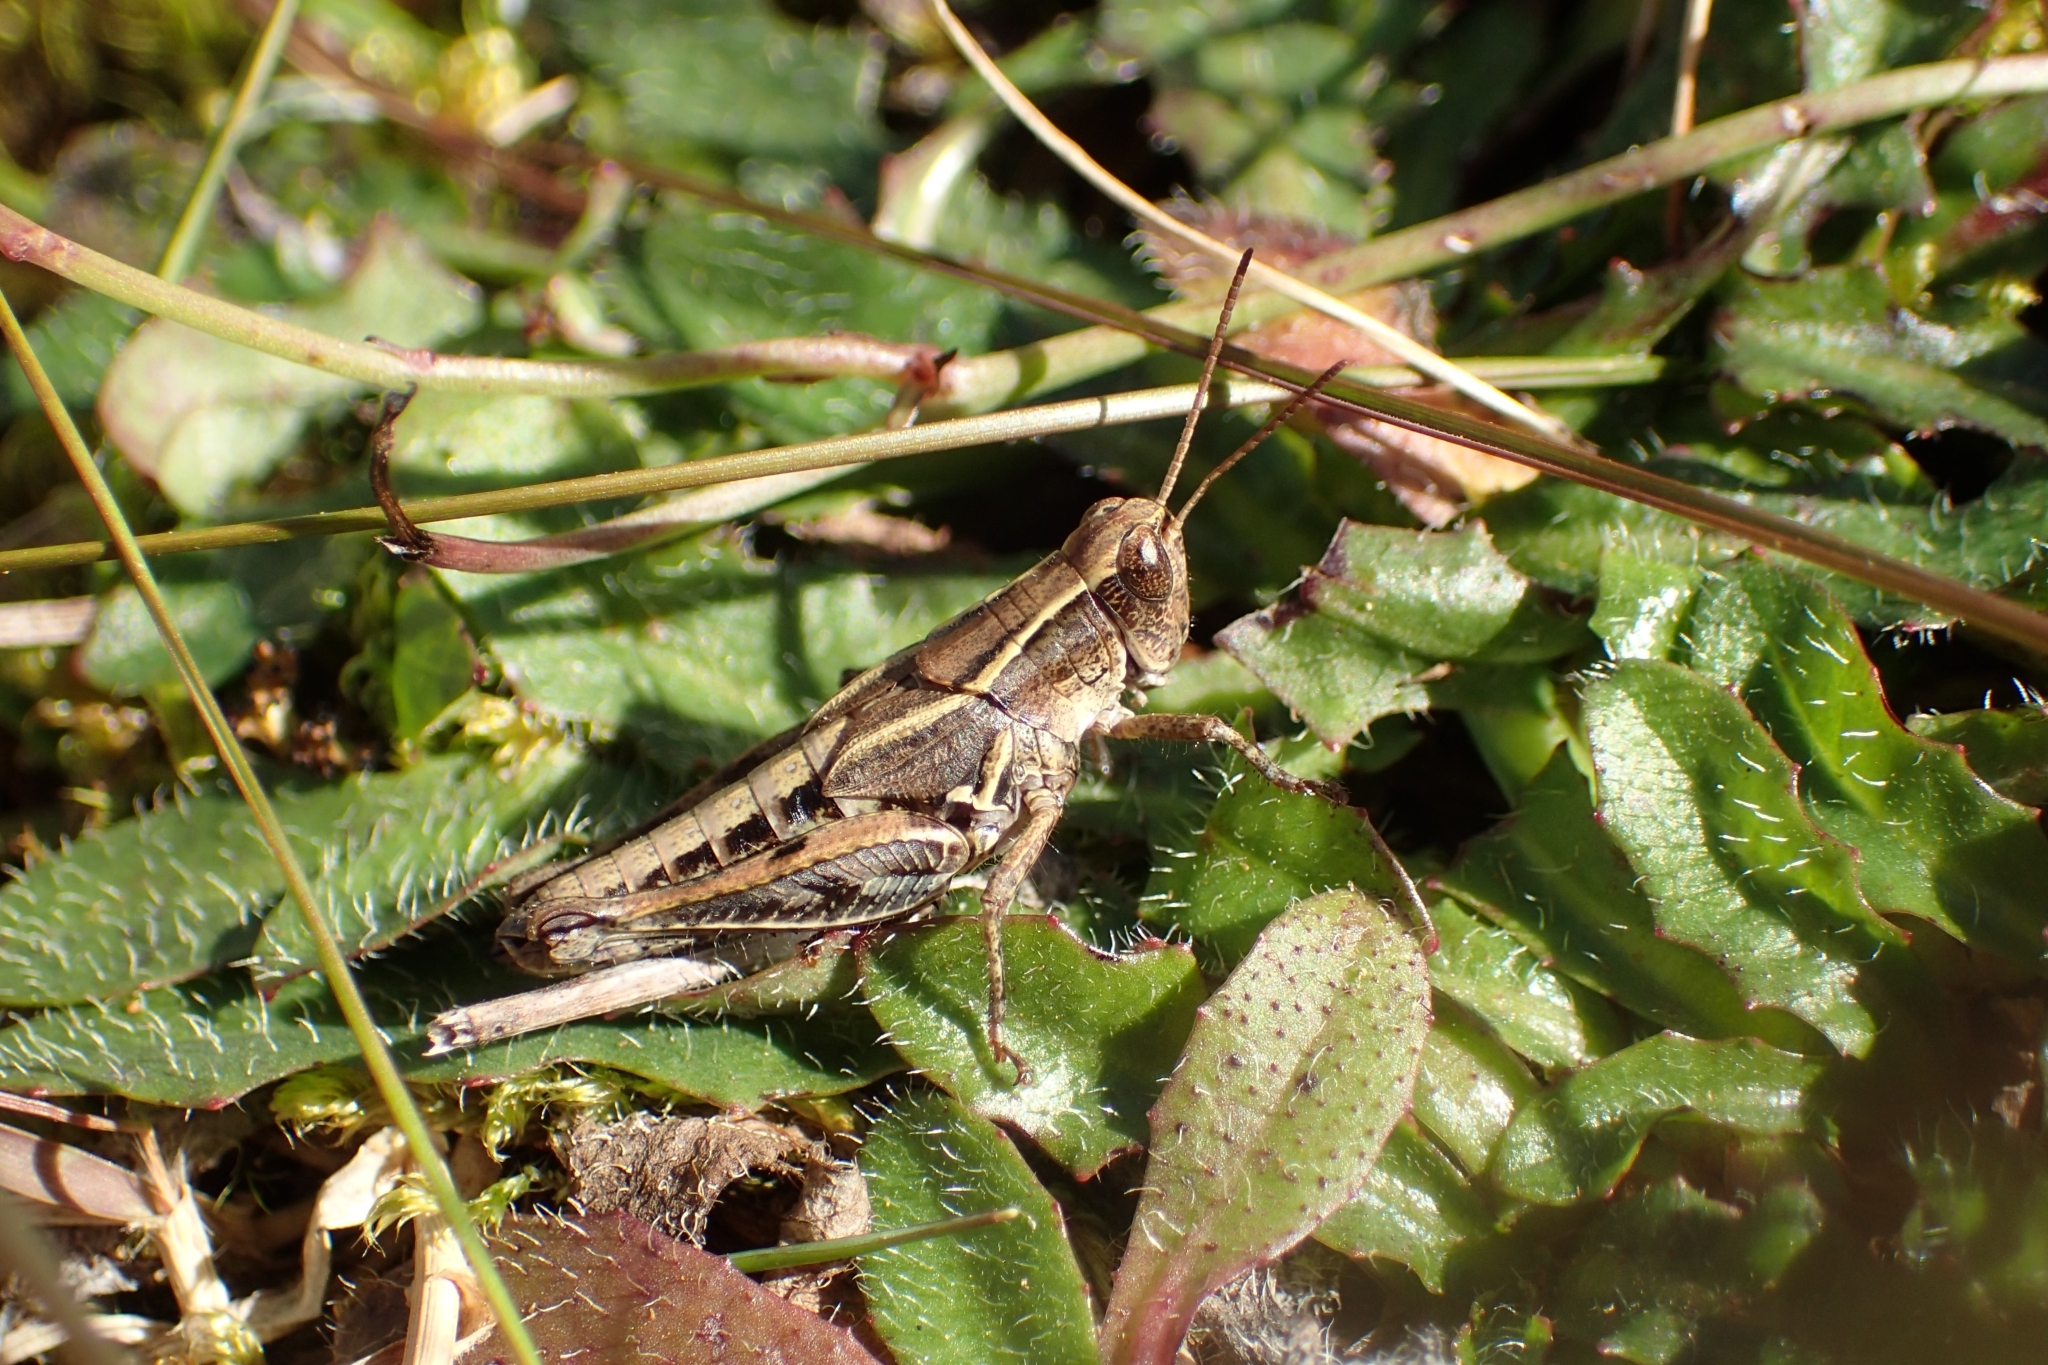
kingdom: Animalia
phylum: Arthropoda
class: Insecta
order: Orthoptera
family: Acrididae
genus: Phaulacridium
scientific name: Phaulacridium marginale
